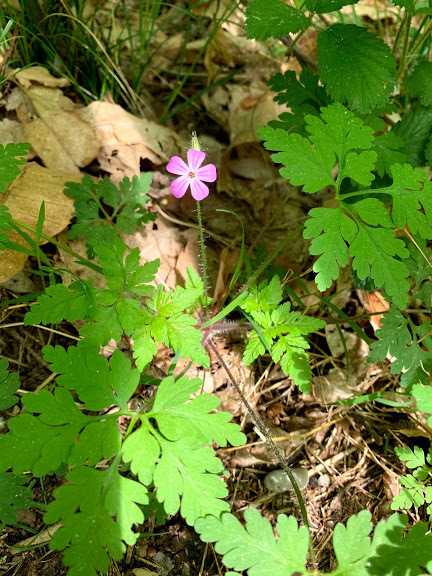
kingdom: Plantae
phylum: Tracheophyta
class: Magnoliopsida
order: Geraniales
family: Geraniaceae
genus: Geranium
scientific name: Geranium robertianum
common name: Herb-robert
